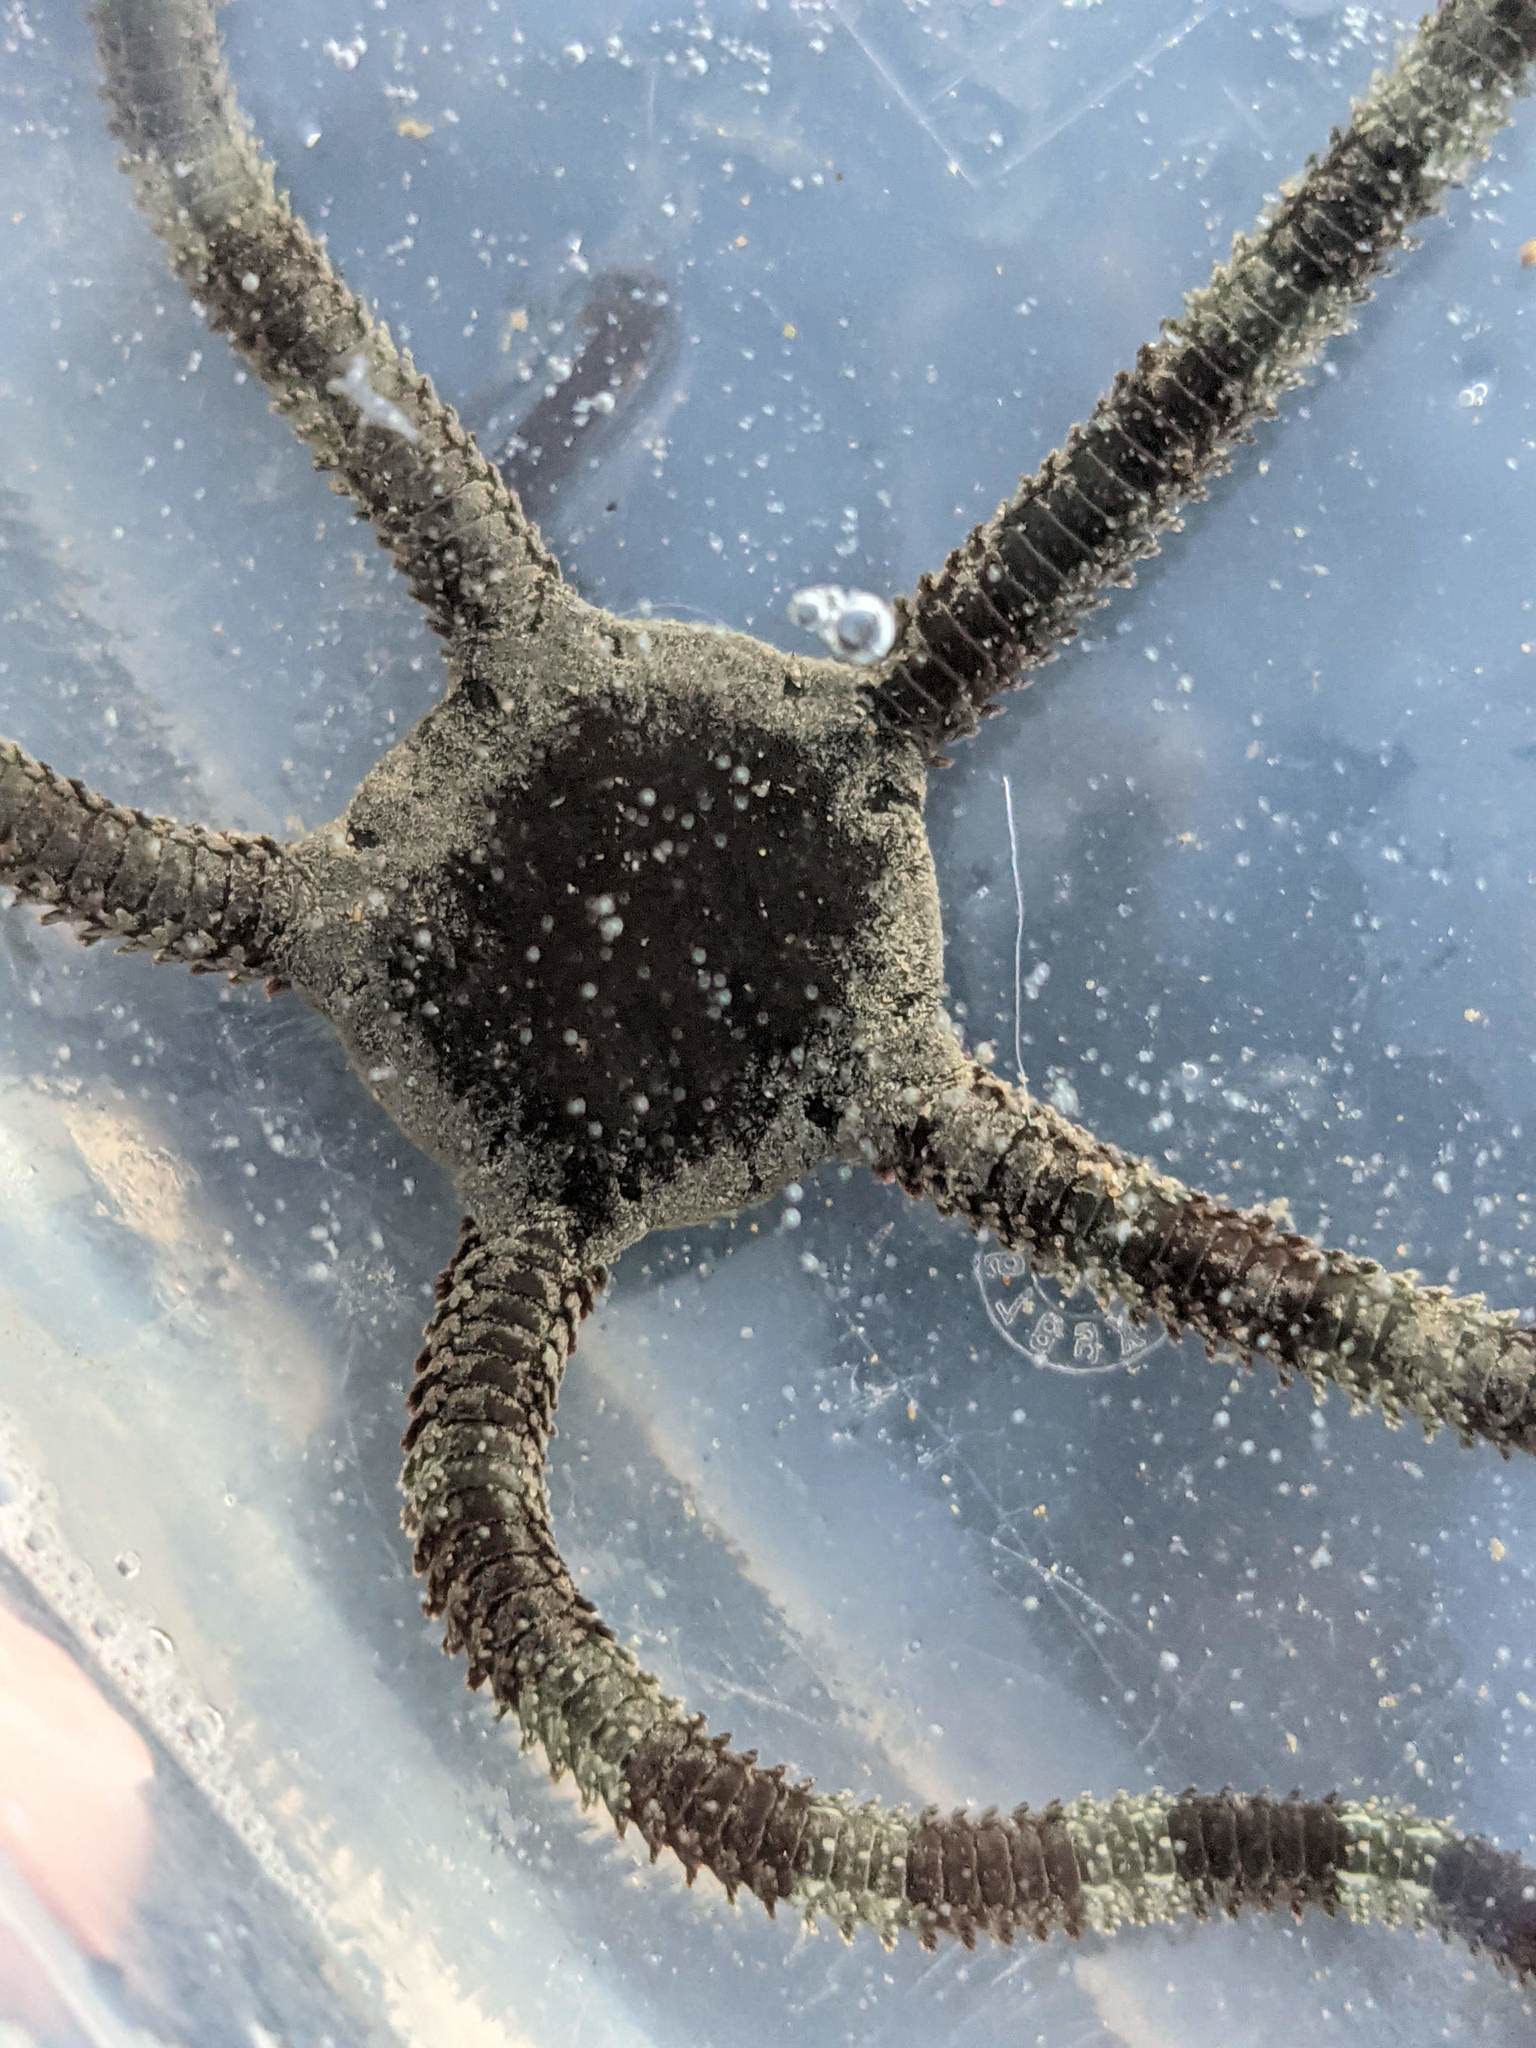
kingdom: Animalia
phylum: Echinodermata
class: Ophiuroidea
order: Ophiacanthida
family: Ophiodermatidae
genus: Ophioderma
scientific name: Ophioderma panamense
